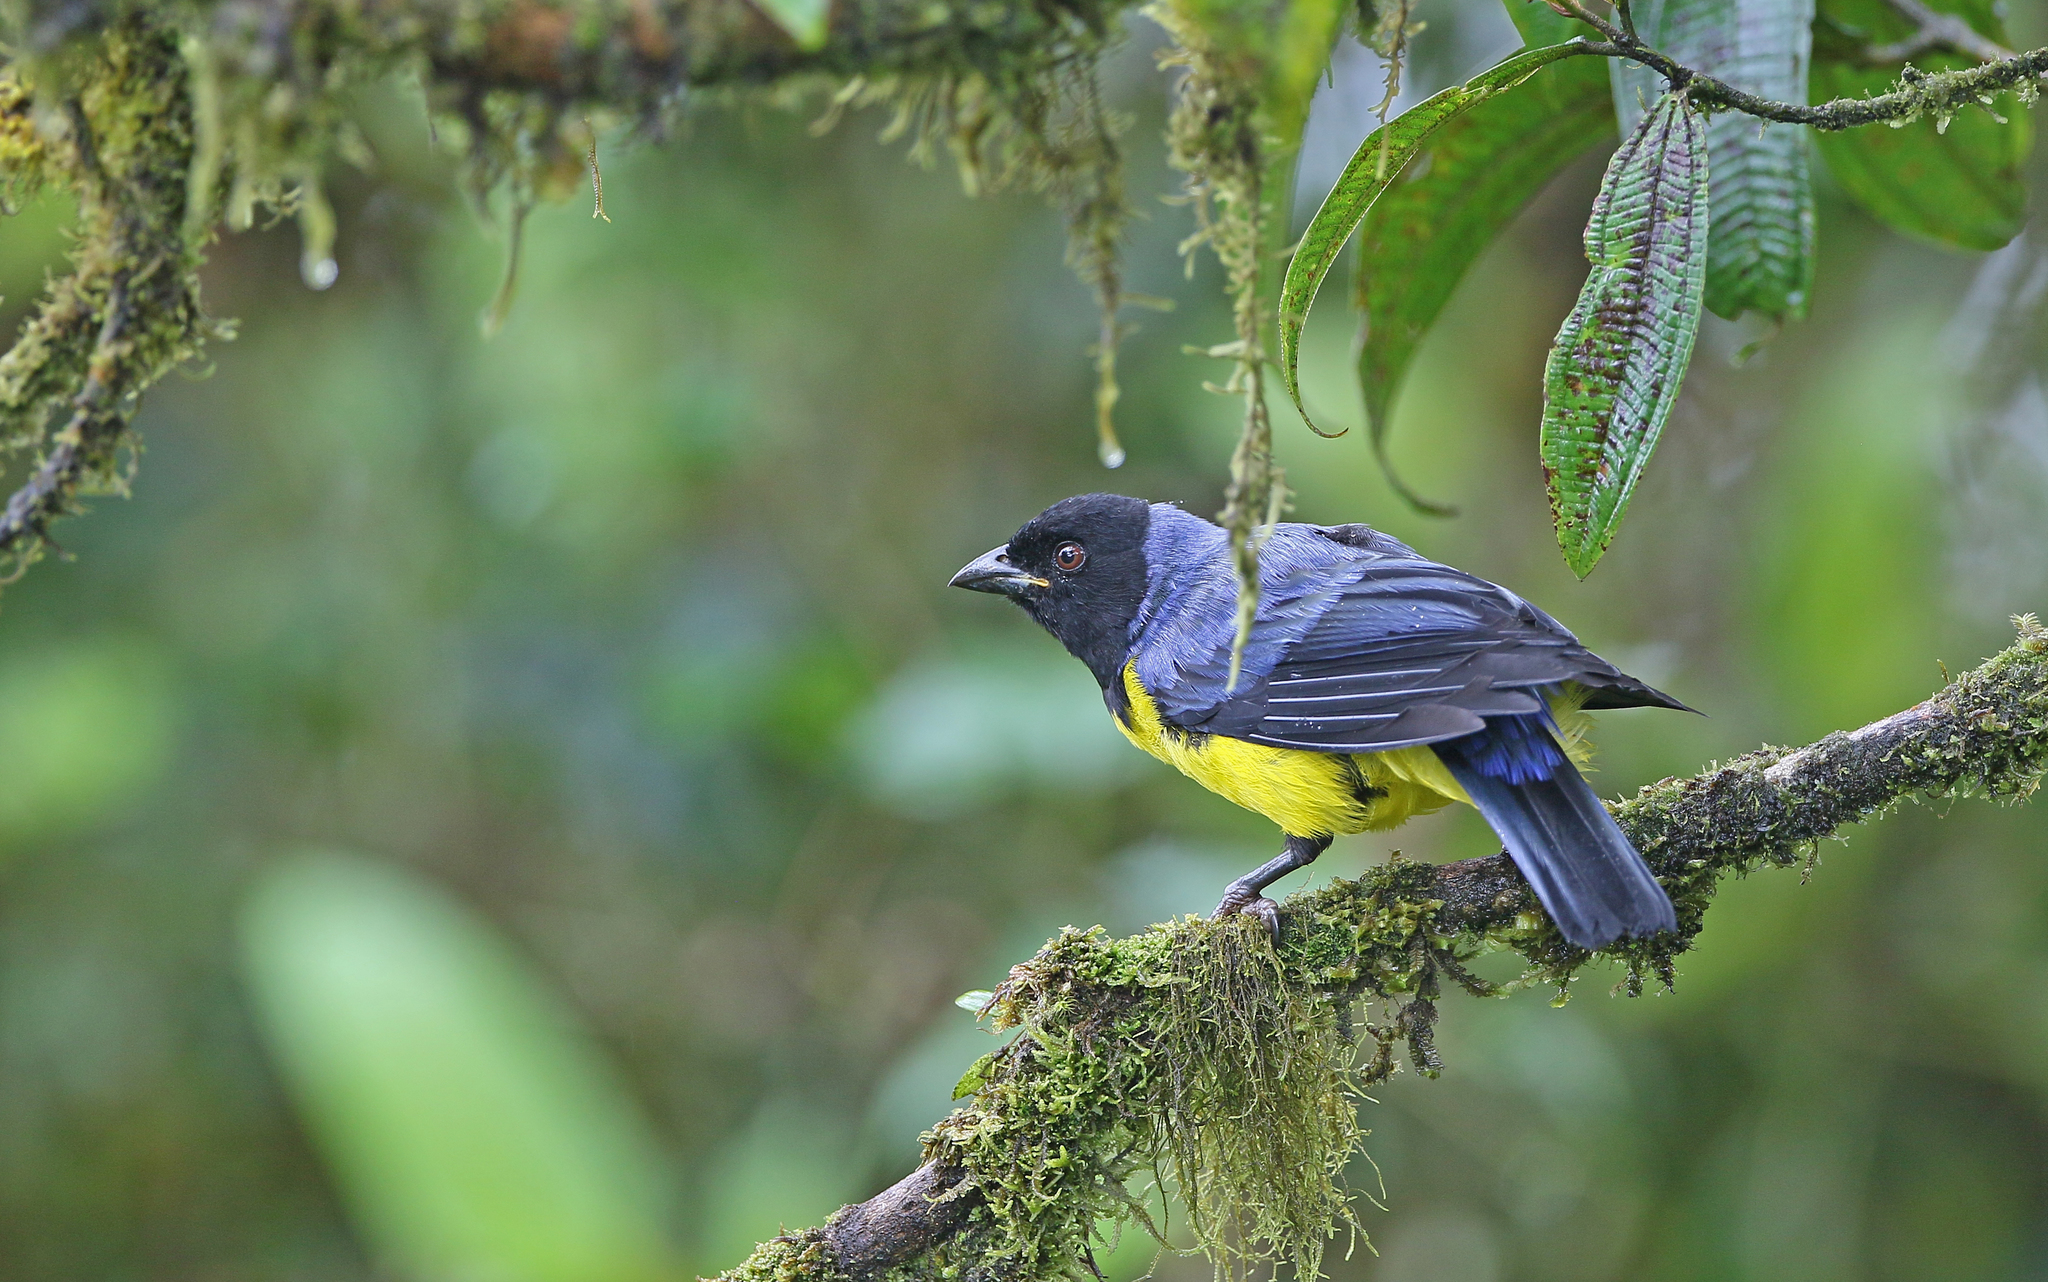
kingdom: Animalia
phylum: Chordata
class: Aves
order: Passeriformes
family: Thraupidae
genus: Buthraupis
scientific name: Buthraupis montana
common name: Hooded mountain tanager
